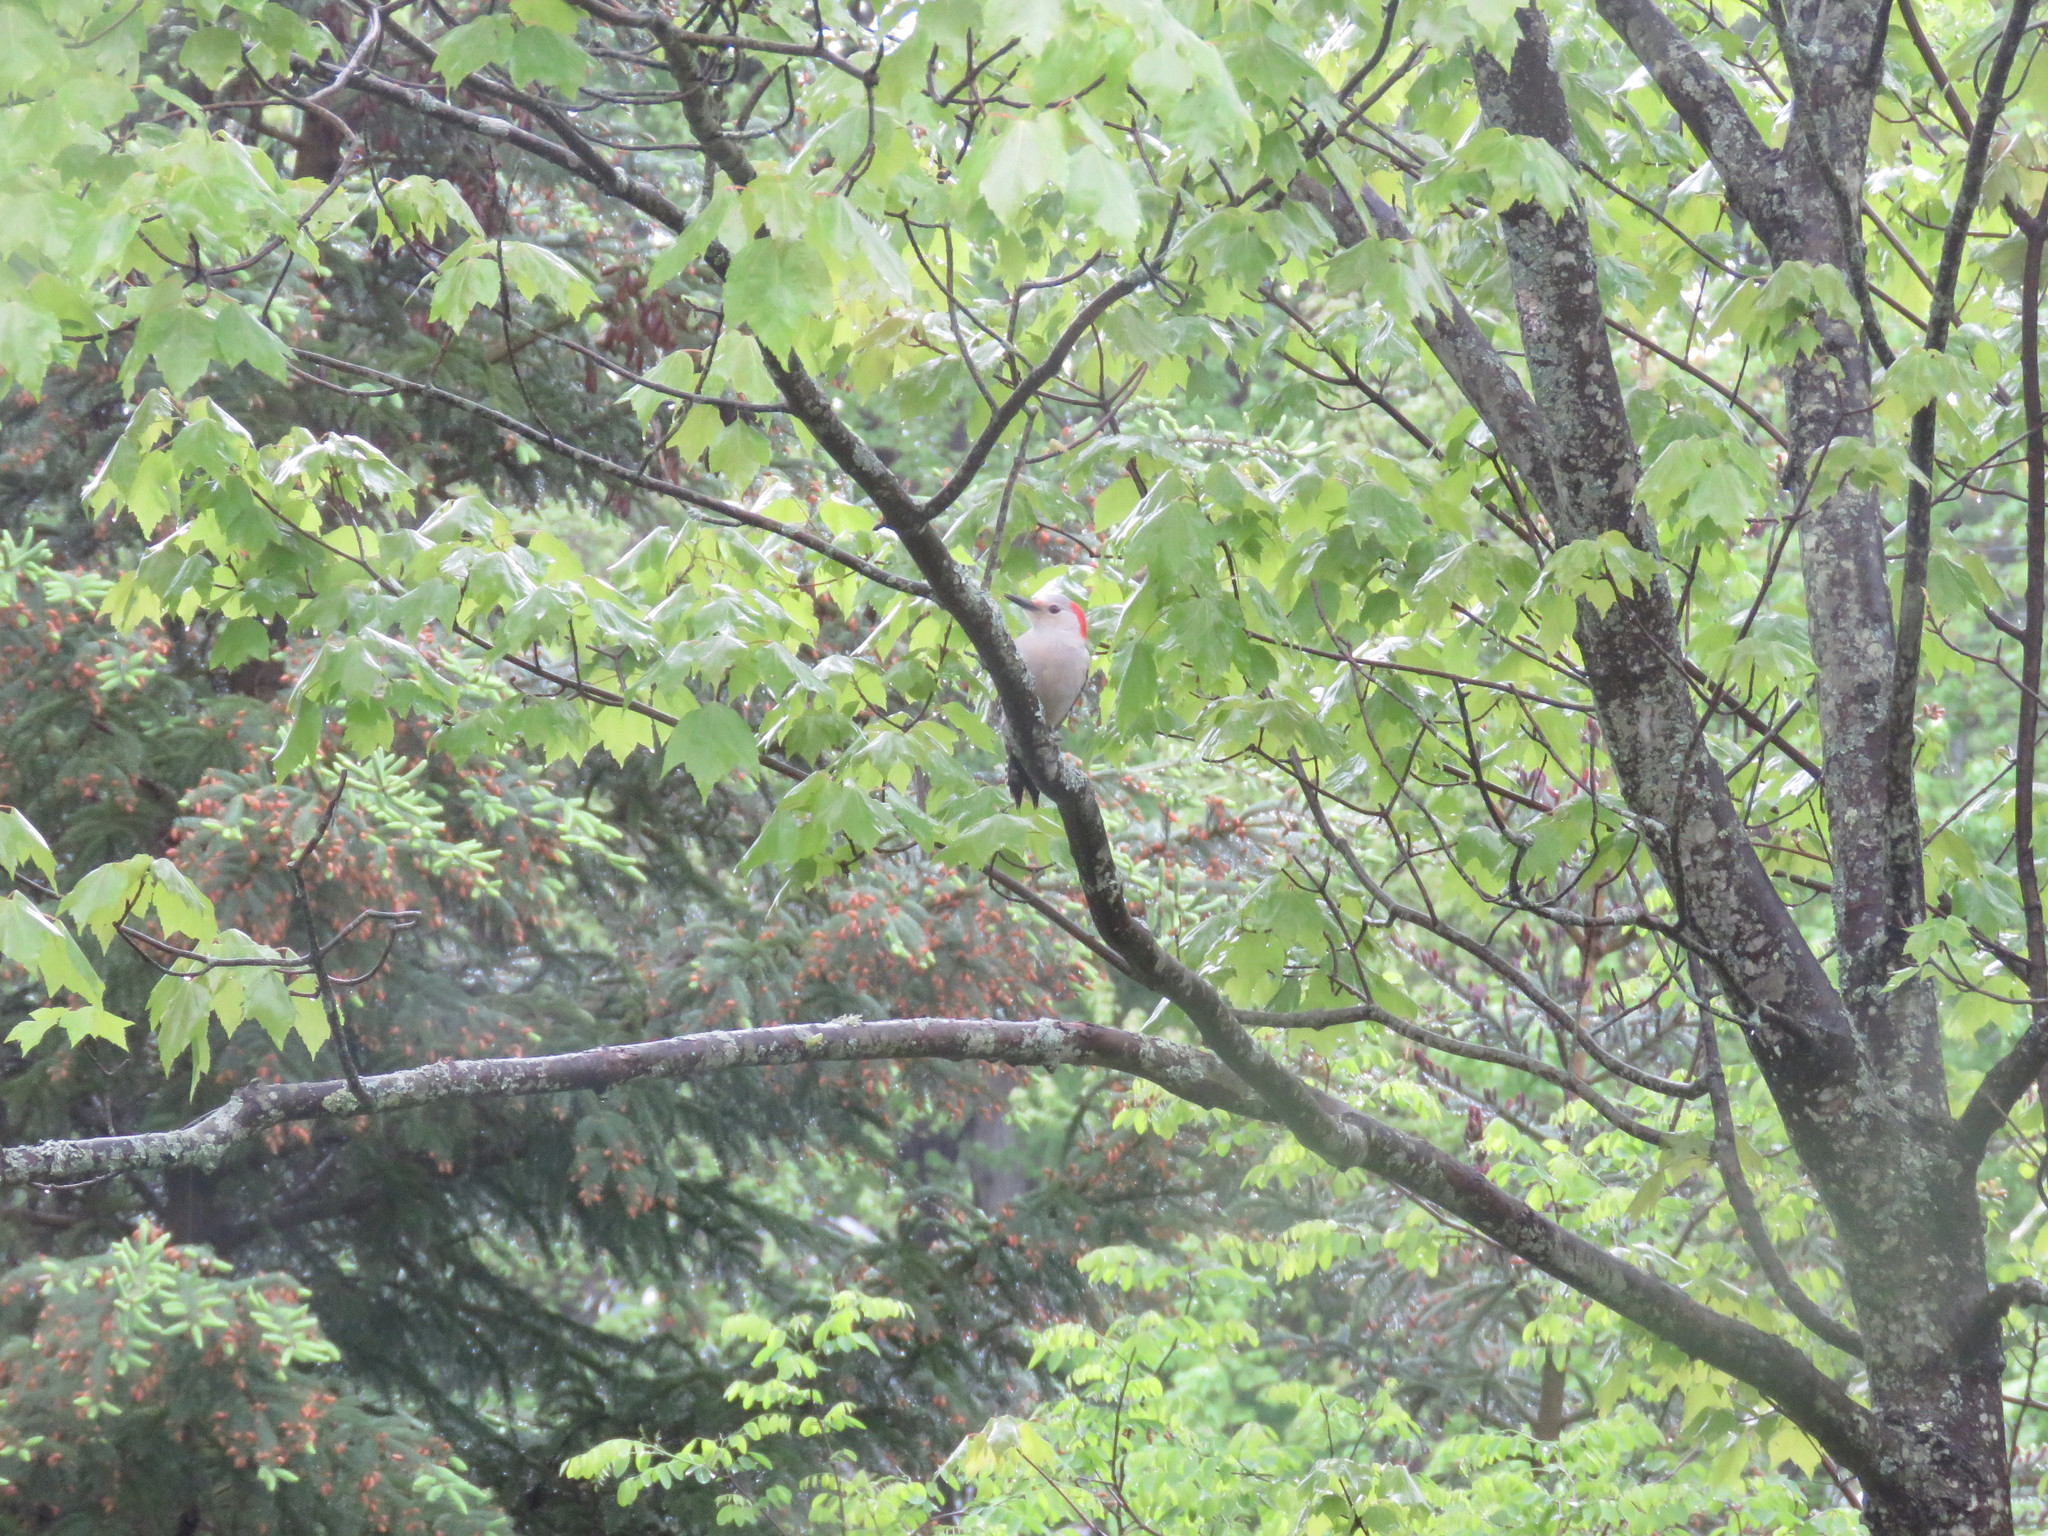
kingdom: Animalia
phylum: Chordata
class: Aves
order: Piciformes
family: Picidae
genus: Melanerpes
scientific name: Melanerpes carolinus
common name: Red-bellied woodpecker
